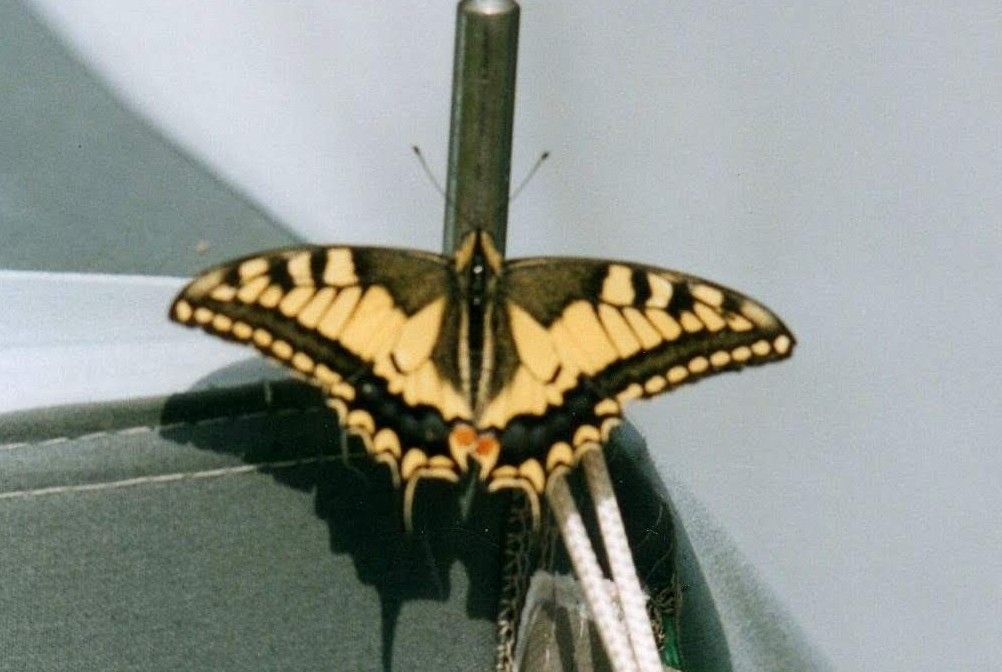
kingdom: Animalia
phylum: Arthropoda
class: Insecta
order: Lepidoptera
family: Papilionidae
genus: Papilio
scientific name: Papilio machaon
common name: Swallowtail
